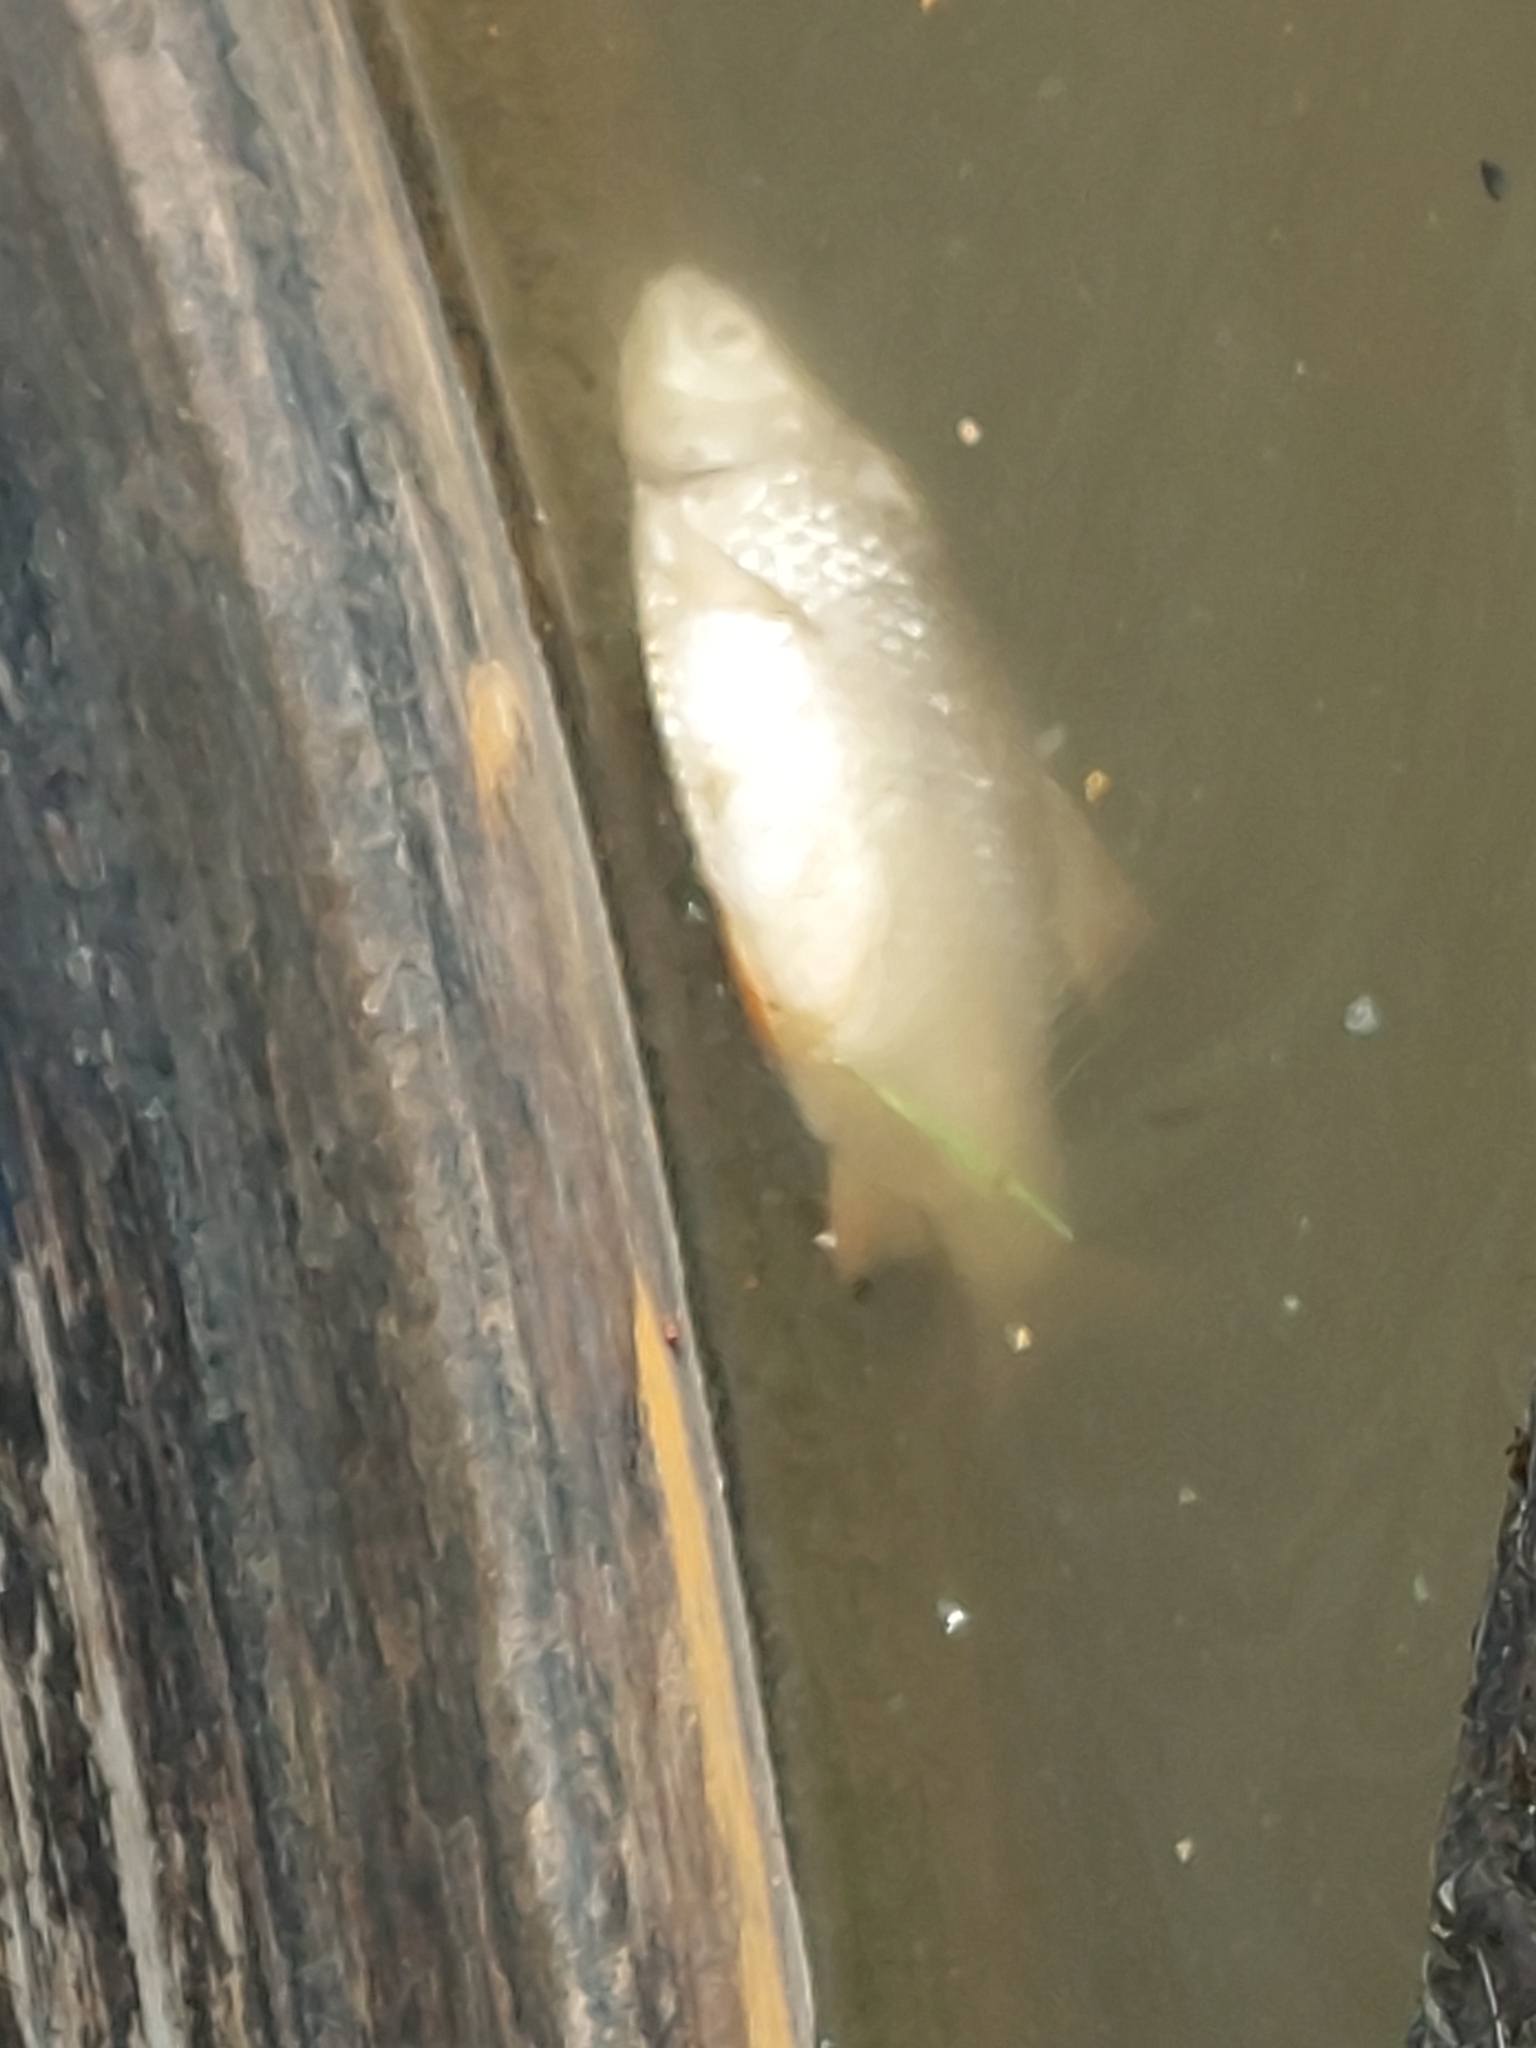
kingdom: Animalia
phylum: Chordata
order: Cypriniformes
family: Cyprinidae
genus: Rutilus
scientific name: Rutilus rutilus
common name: Roach
